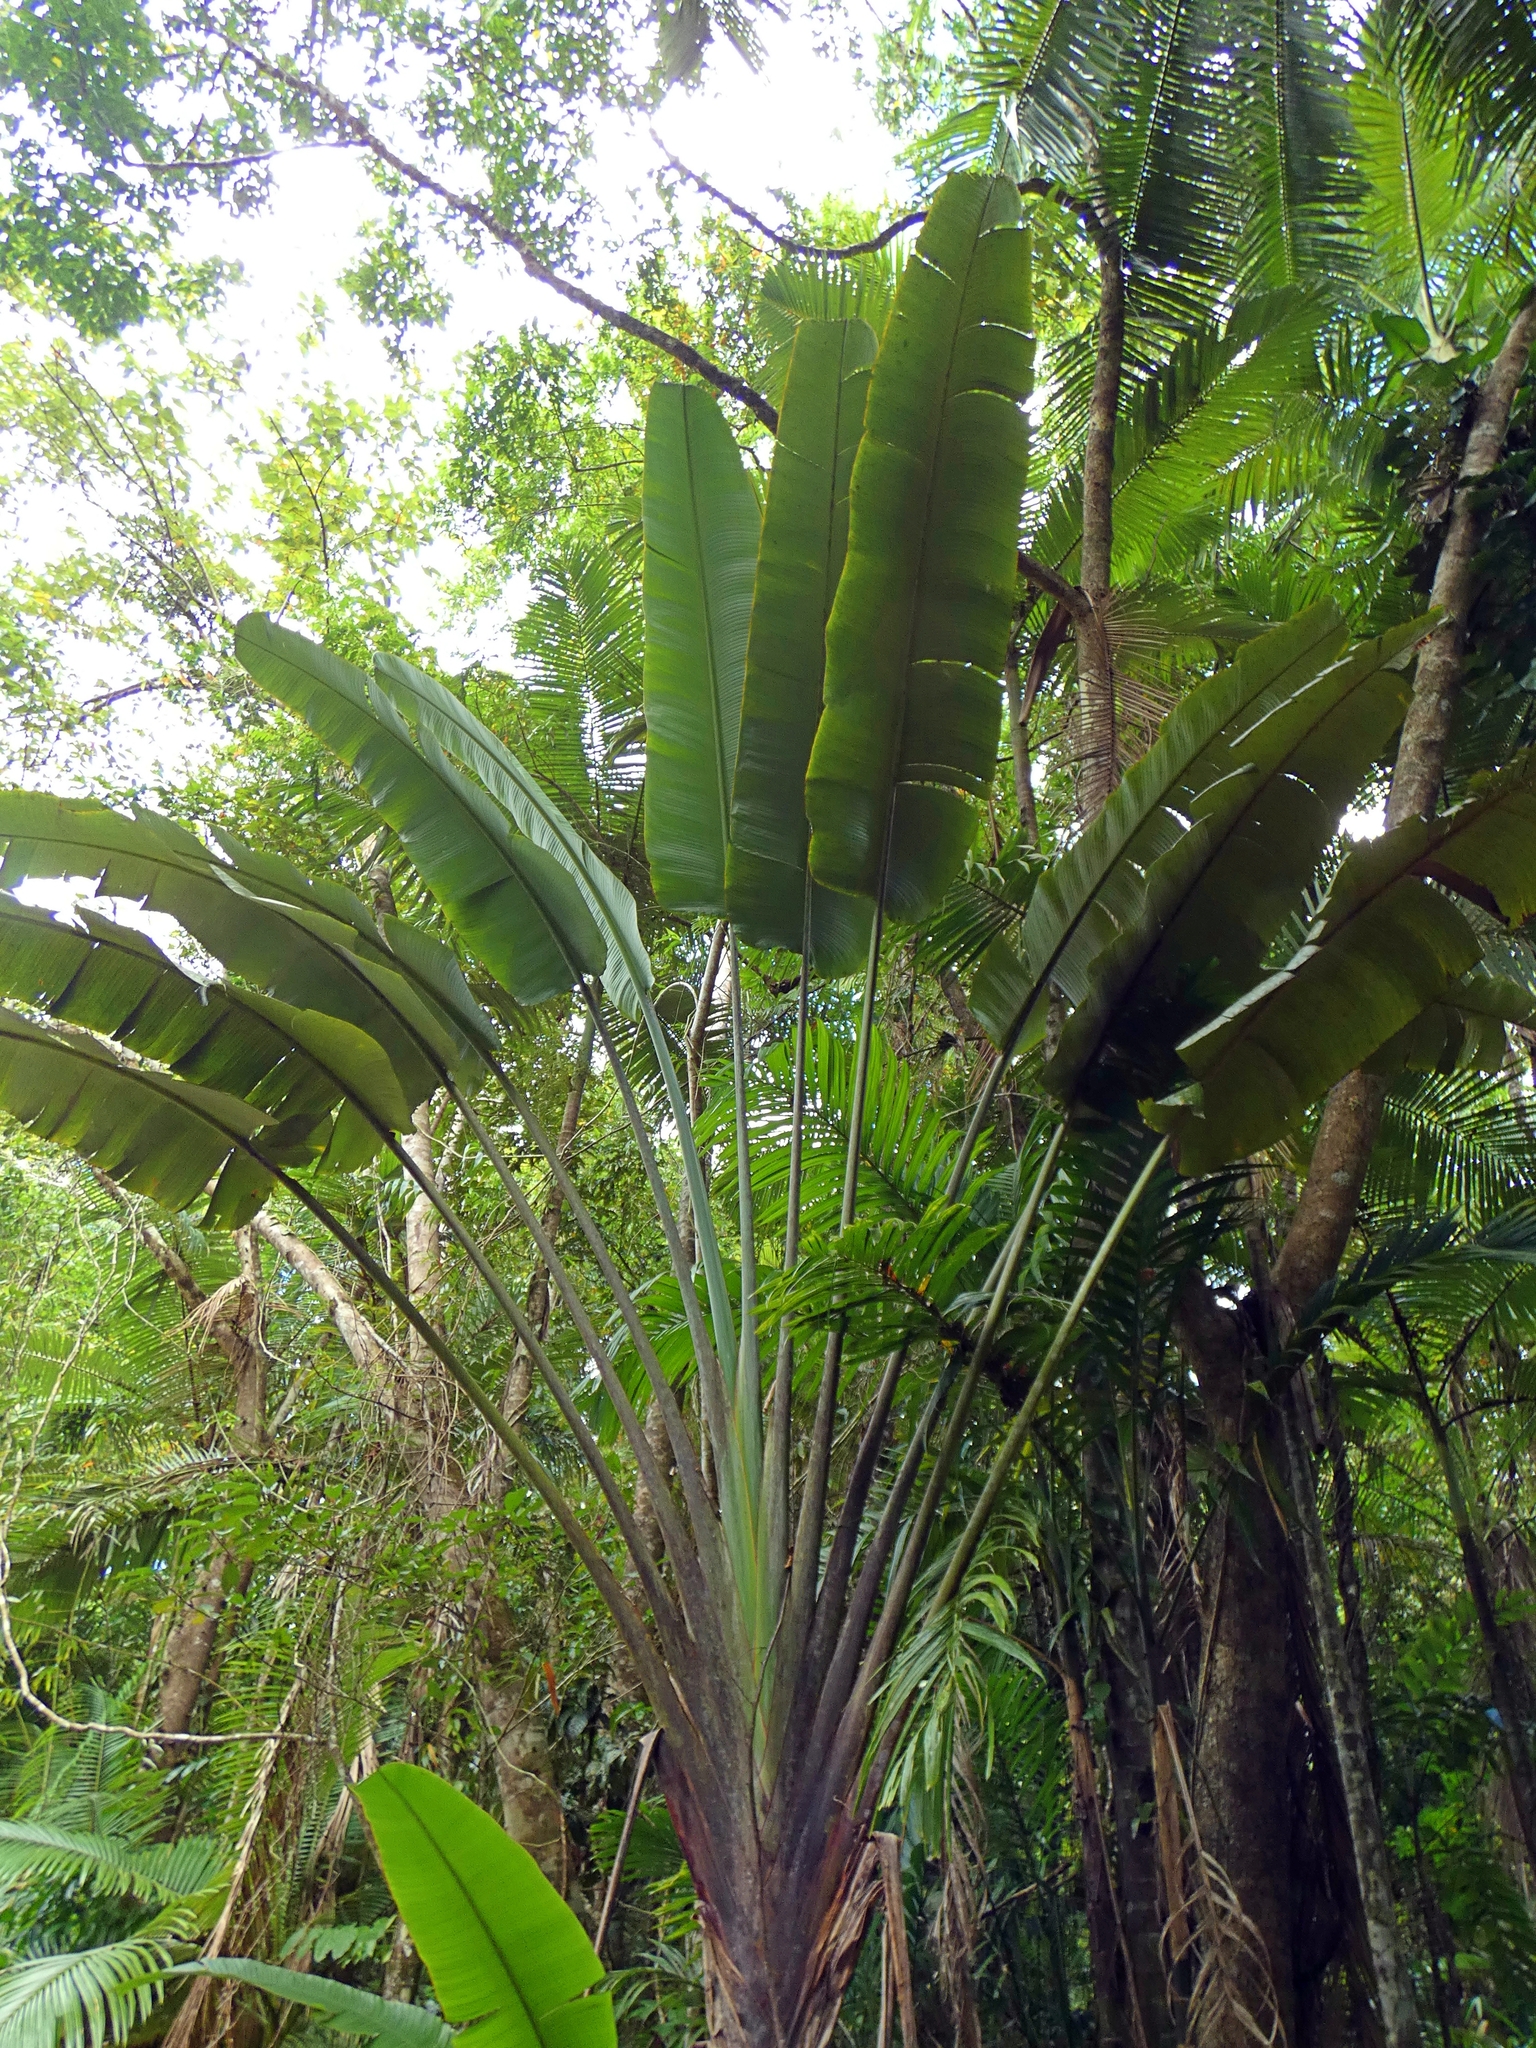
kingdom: Plantae
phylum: Tracheophyta
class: Liliopsida
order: Zingiberales
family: Strelitziaceae
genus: Ravenala
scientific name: Ravenala madagascariensis
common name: Traveler's-palm
